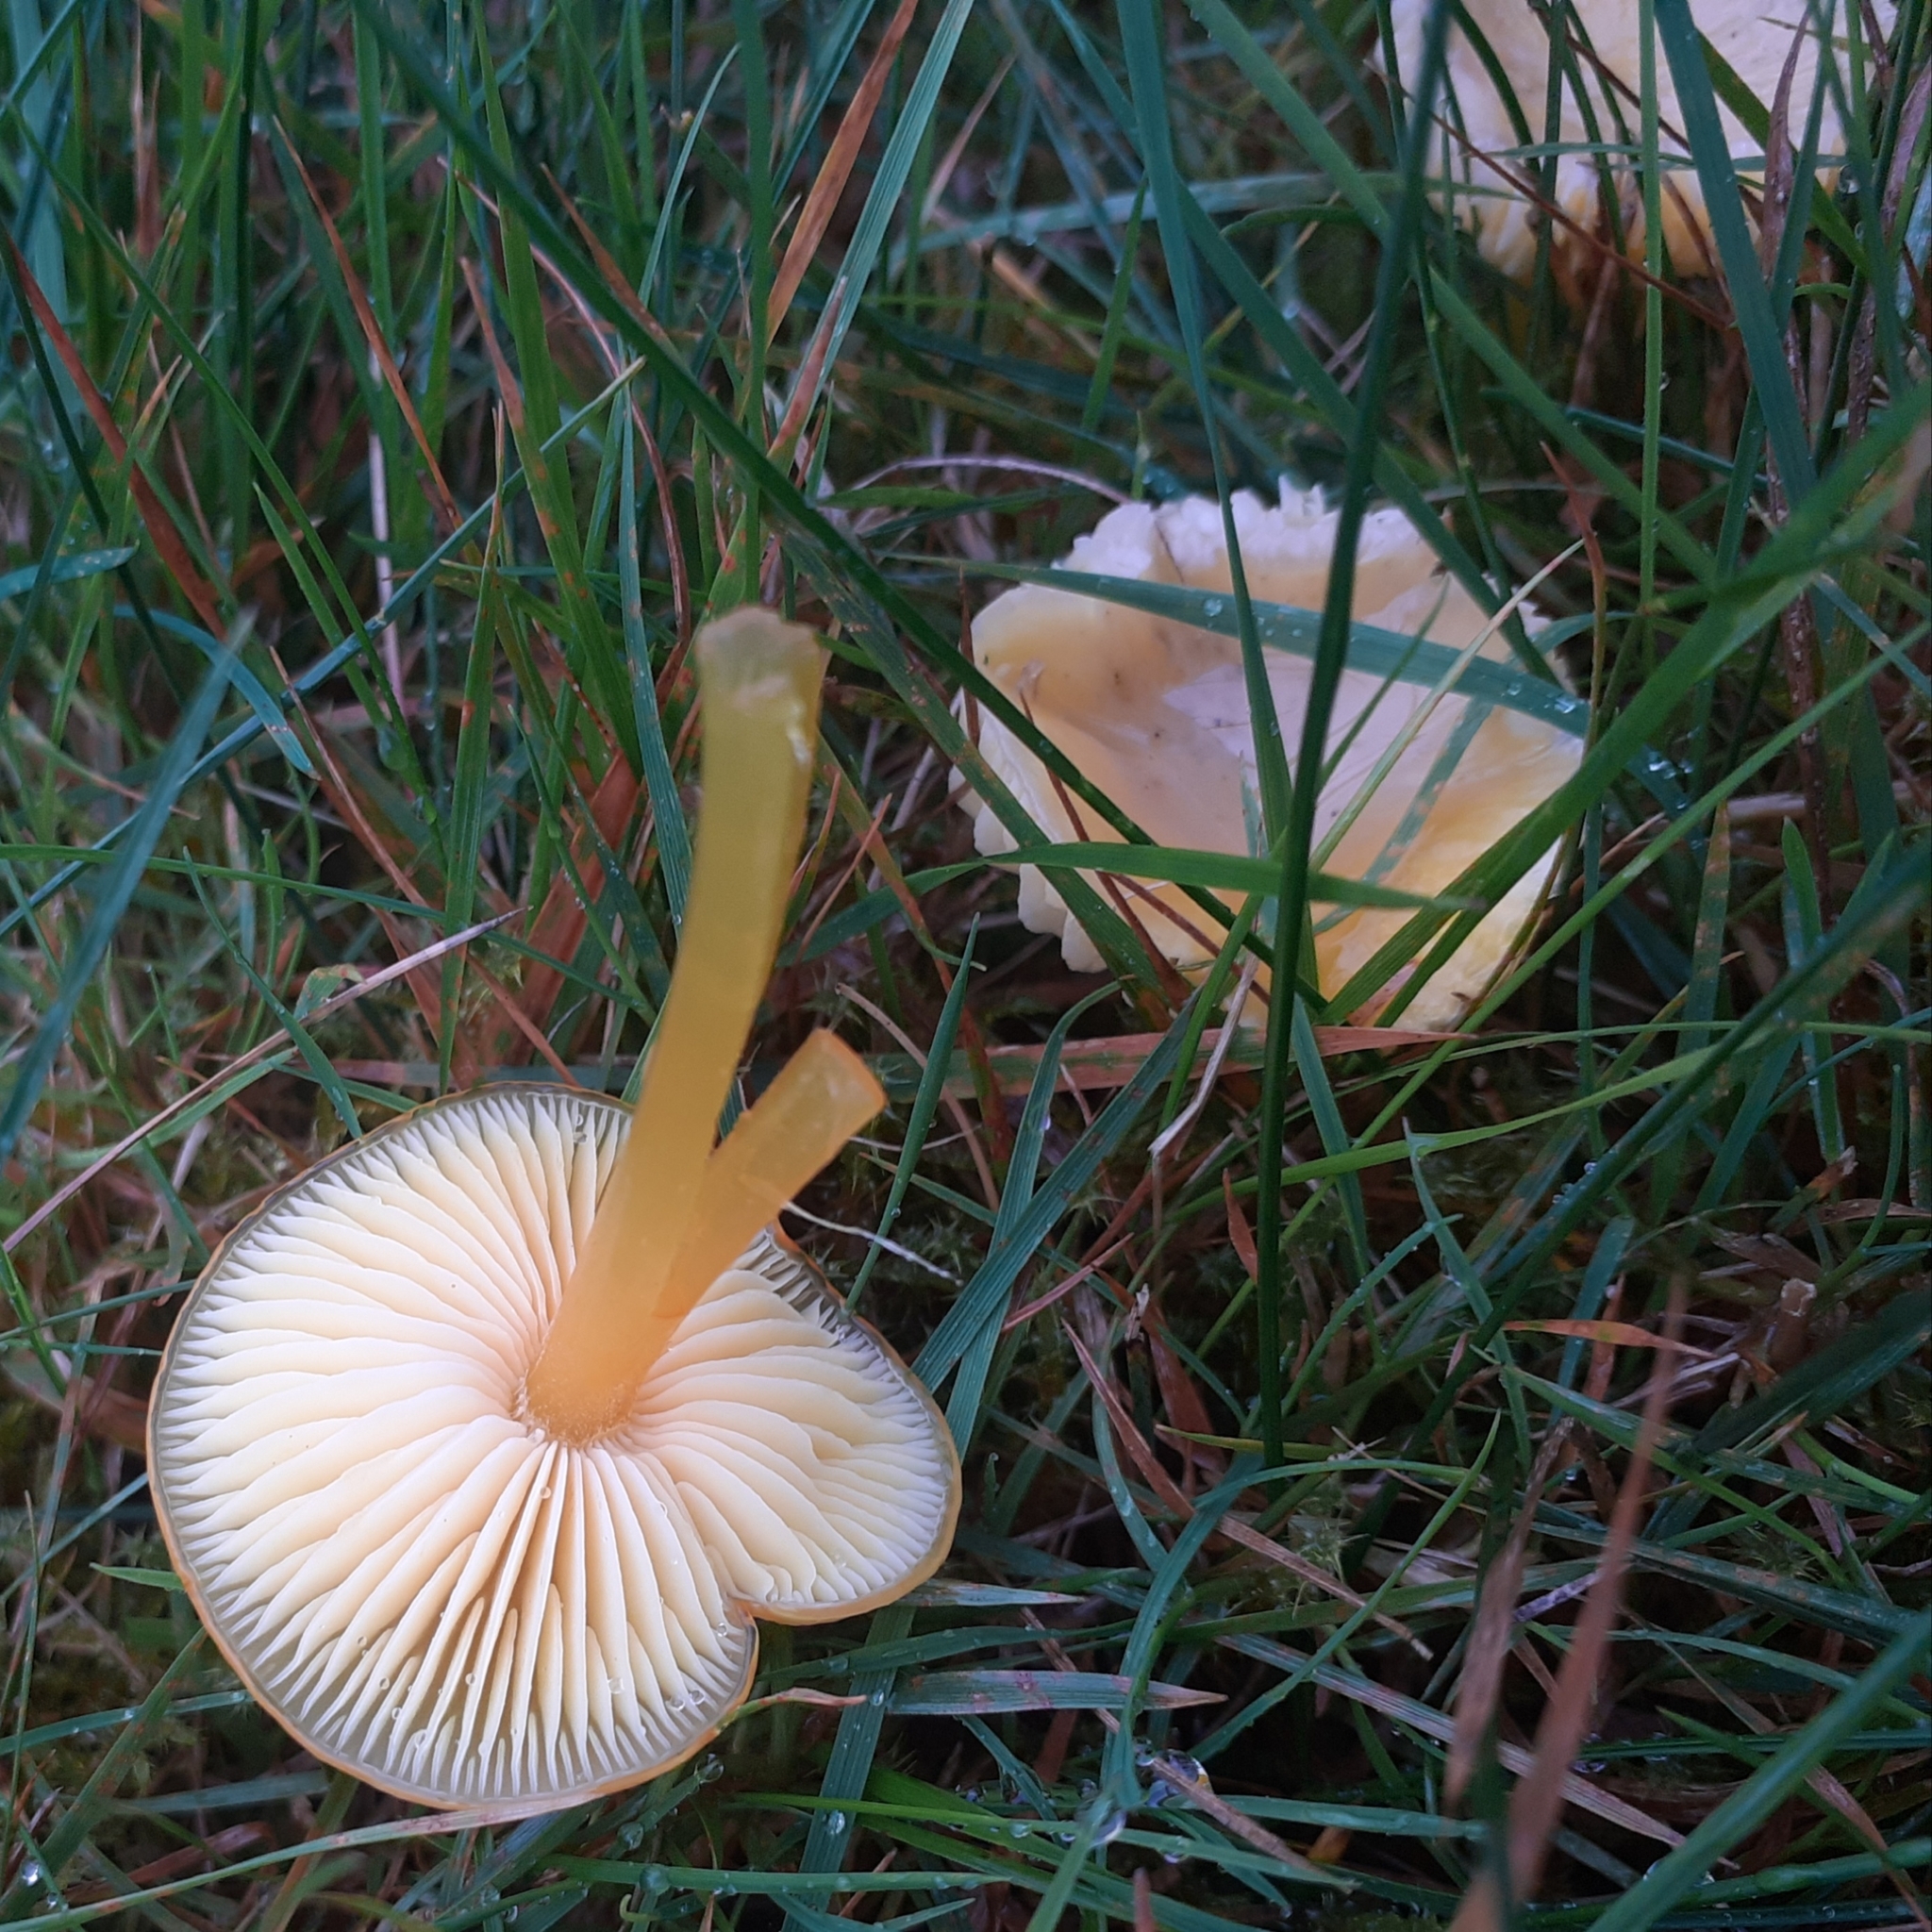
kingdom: Fungi
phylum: Basidiomycota
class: Agaricomycetes
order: Agaricales
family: Hygrophoraceae
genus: Hygrocybe
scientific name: Hygrocybe chlorophana
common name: Golden waxcap
